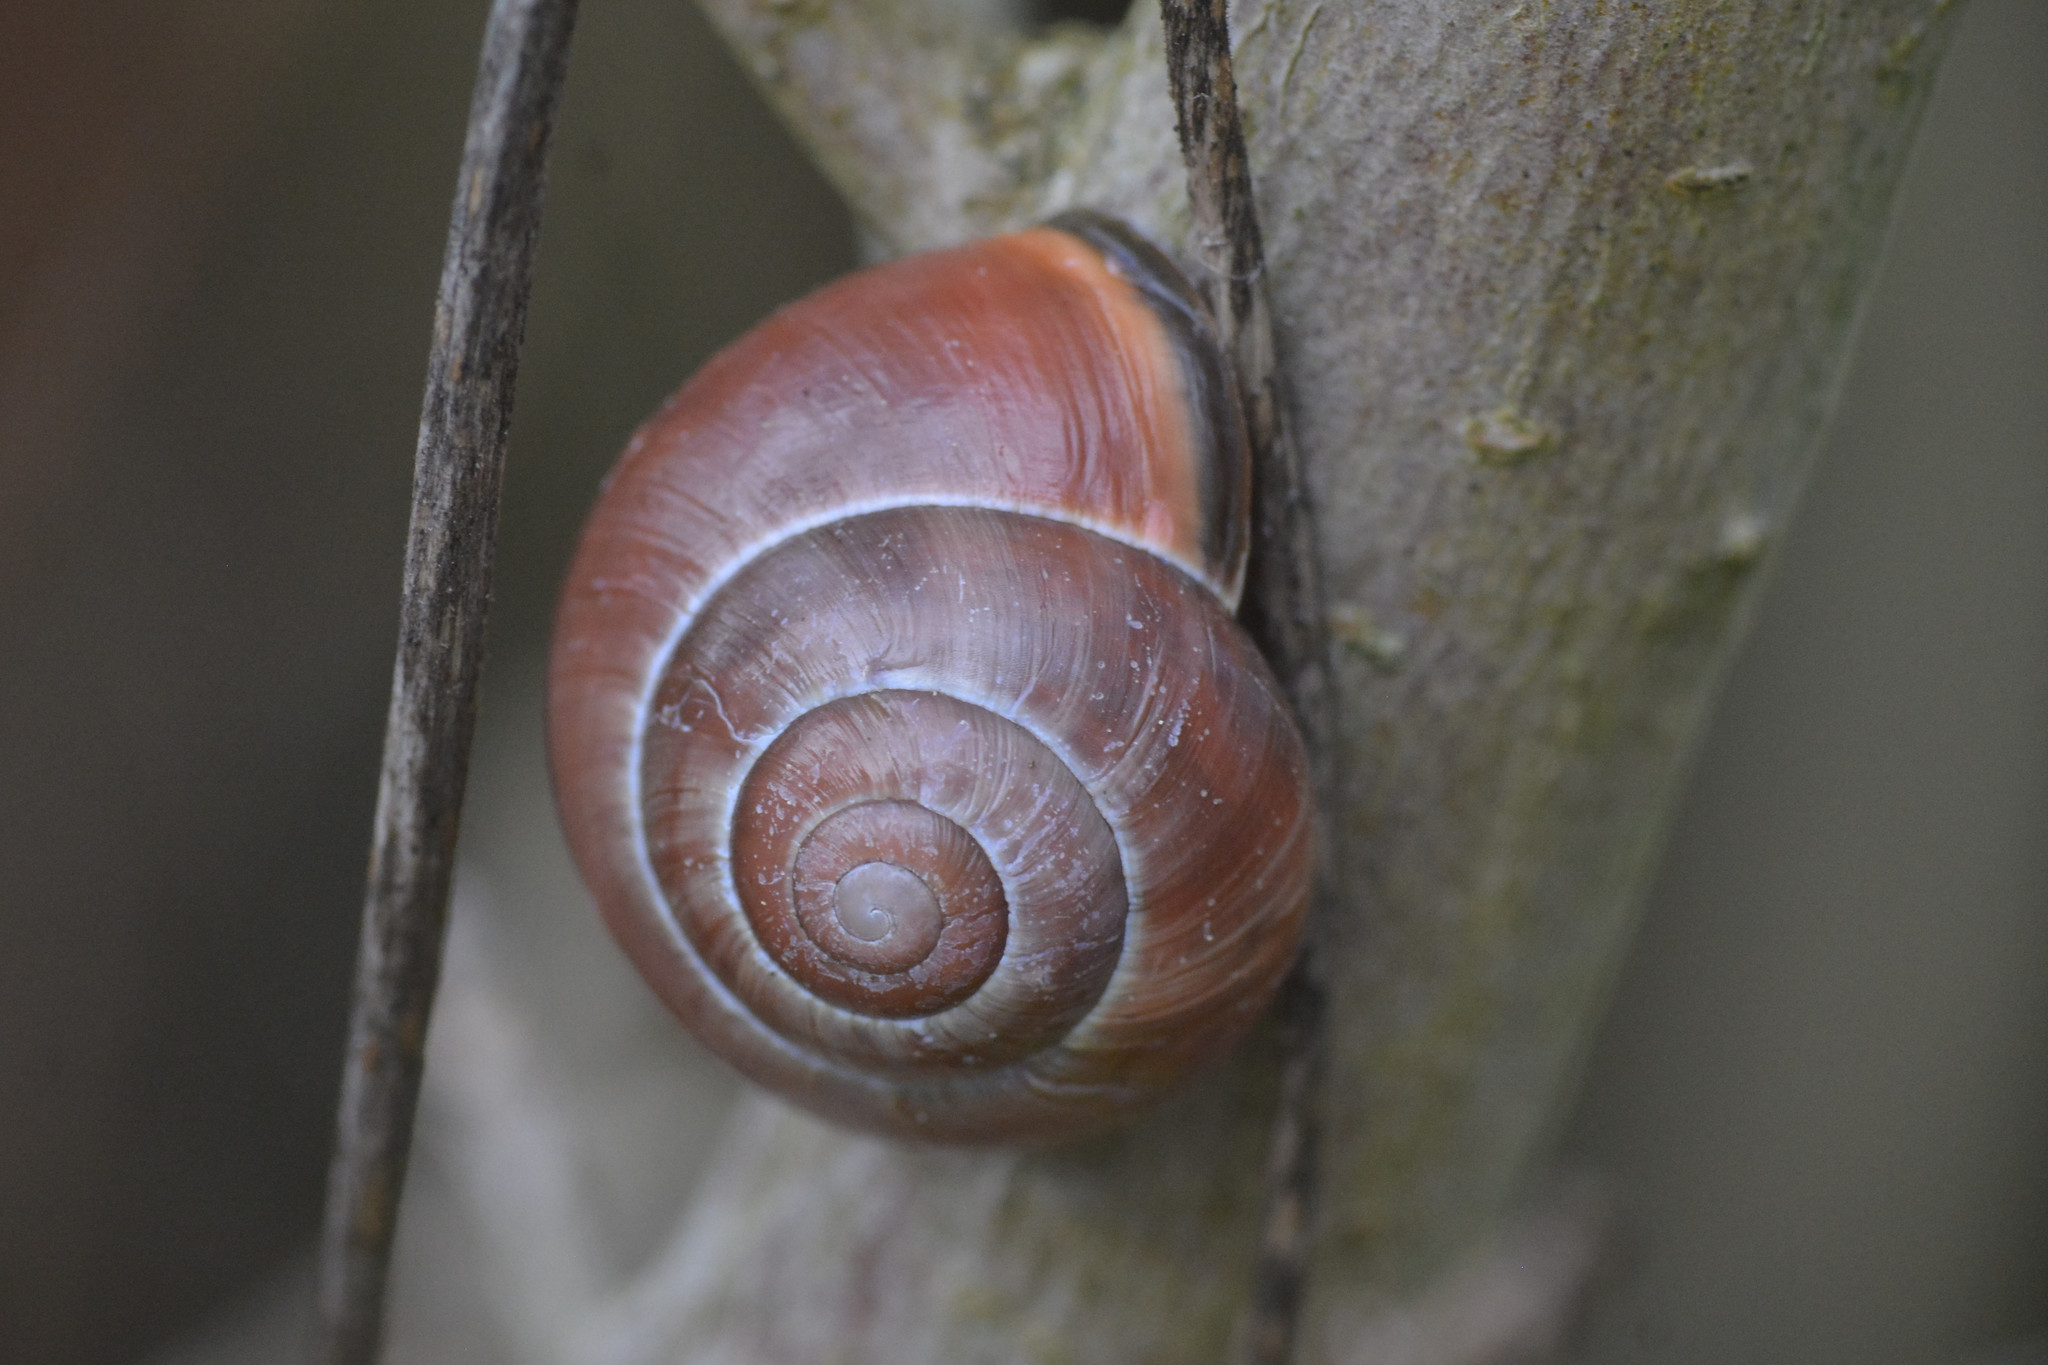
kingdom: Animalia
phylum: Mollusca
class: Gastropoda
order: Stylommatophora
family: Helicidae
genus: Cepaea
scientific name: Cepaea nemoralis
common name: Grovesnail
